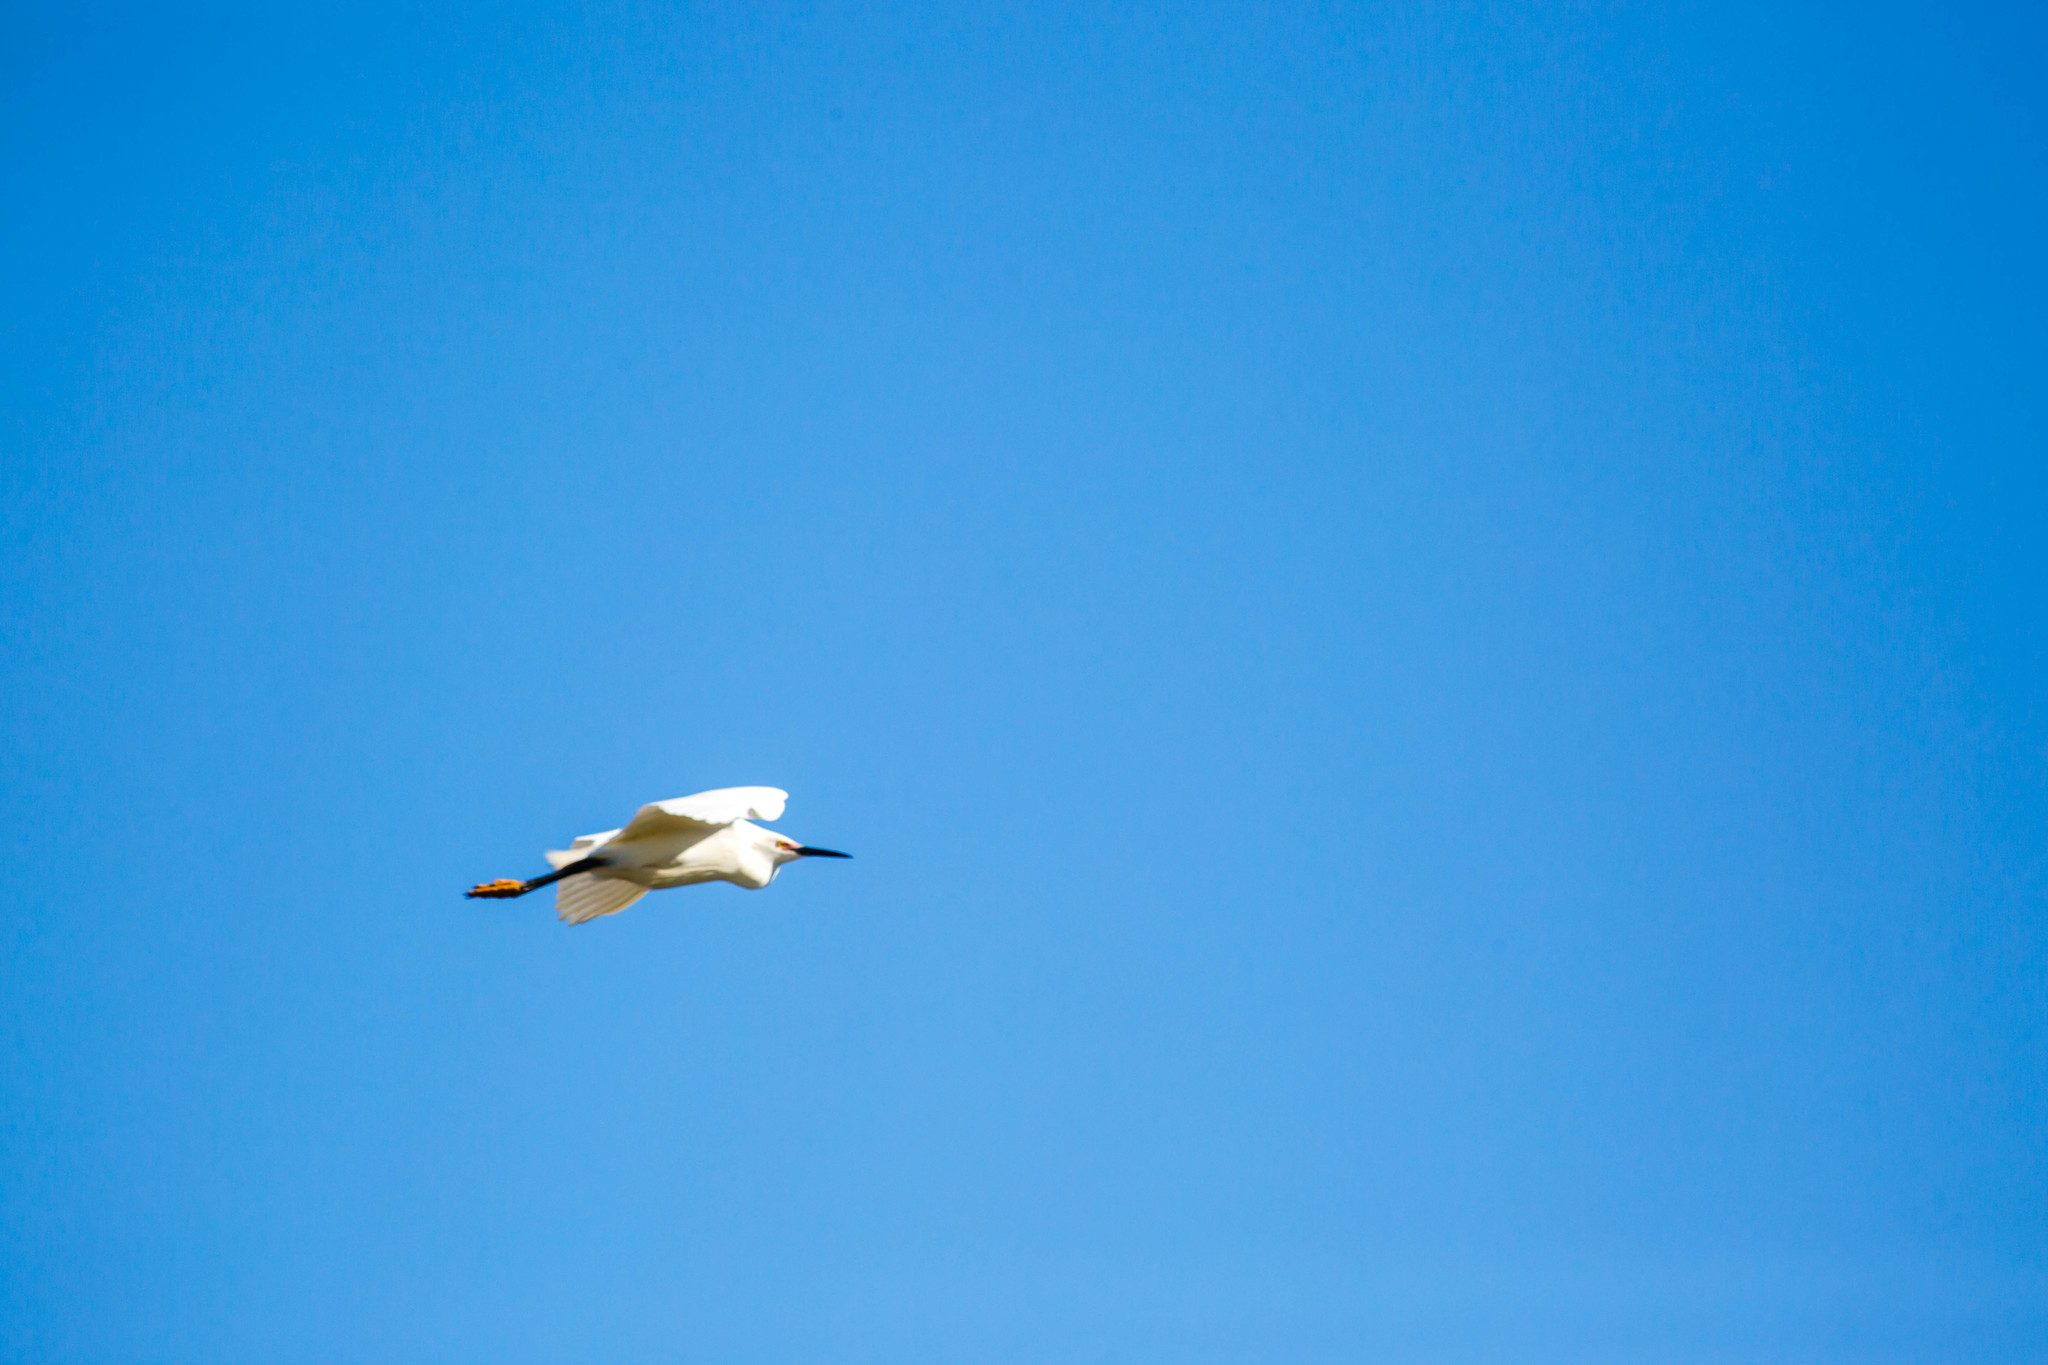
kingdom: Animalia
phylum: Chordata
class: Aves
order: Pelecaniformes
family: Ardeidae
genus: Egretta
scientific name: Egretta thula
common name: Snowy egret
